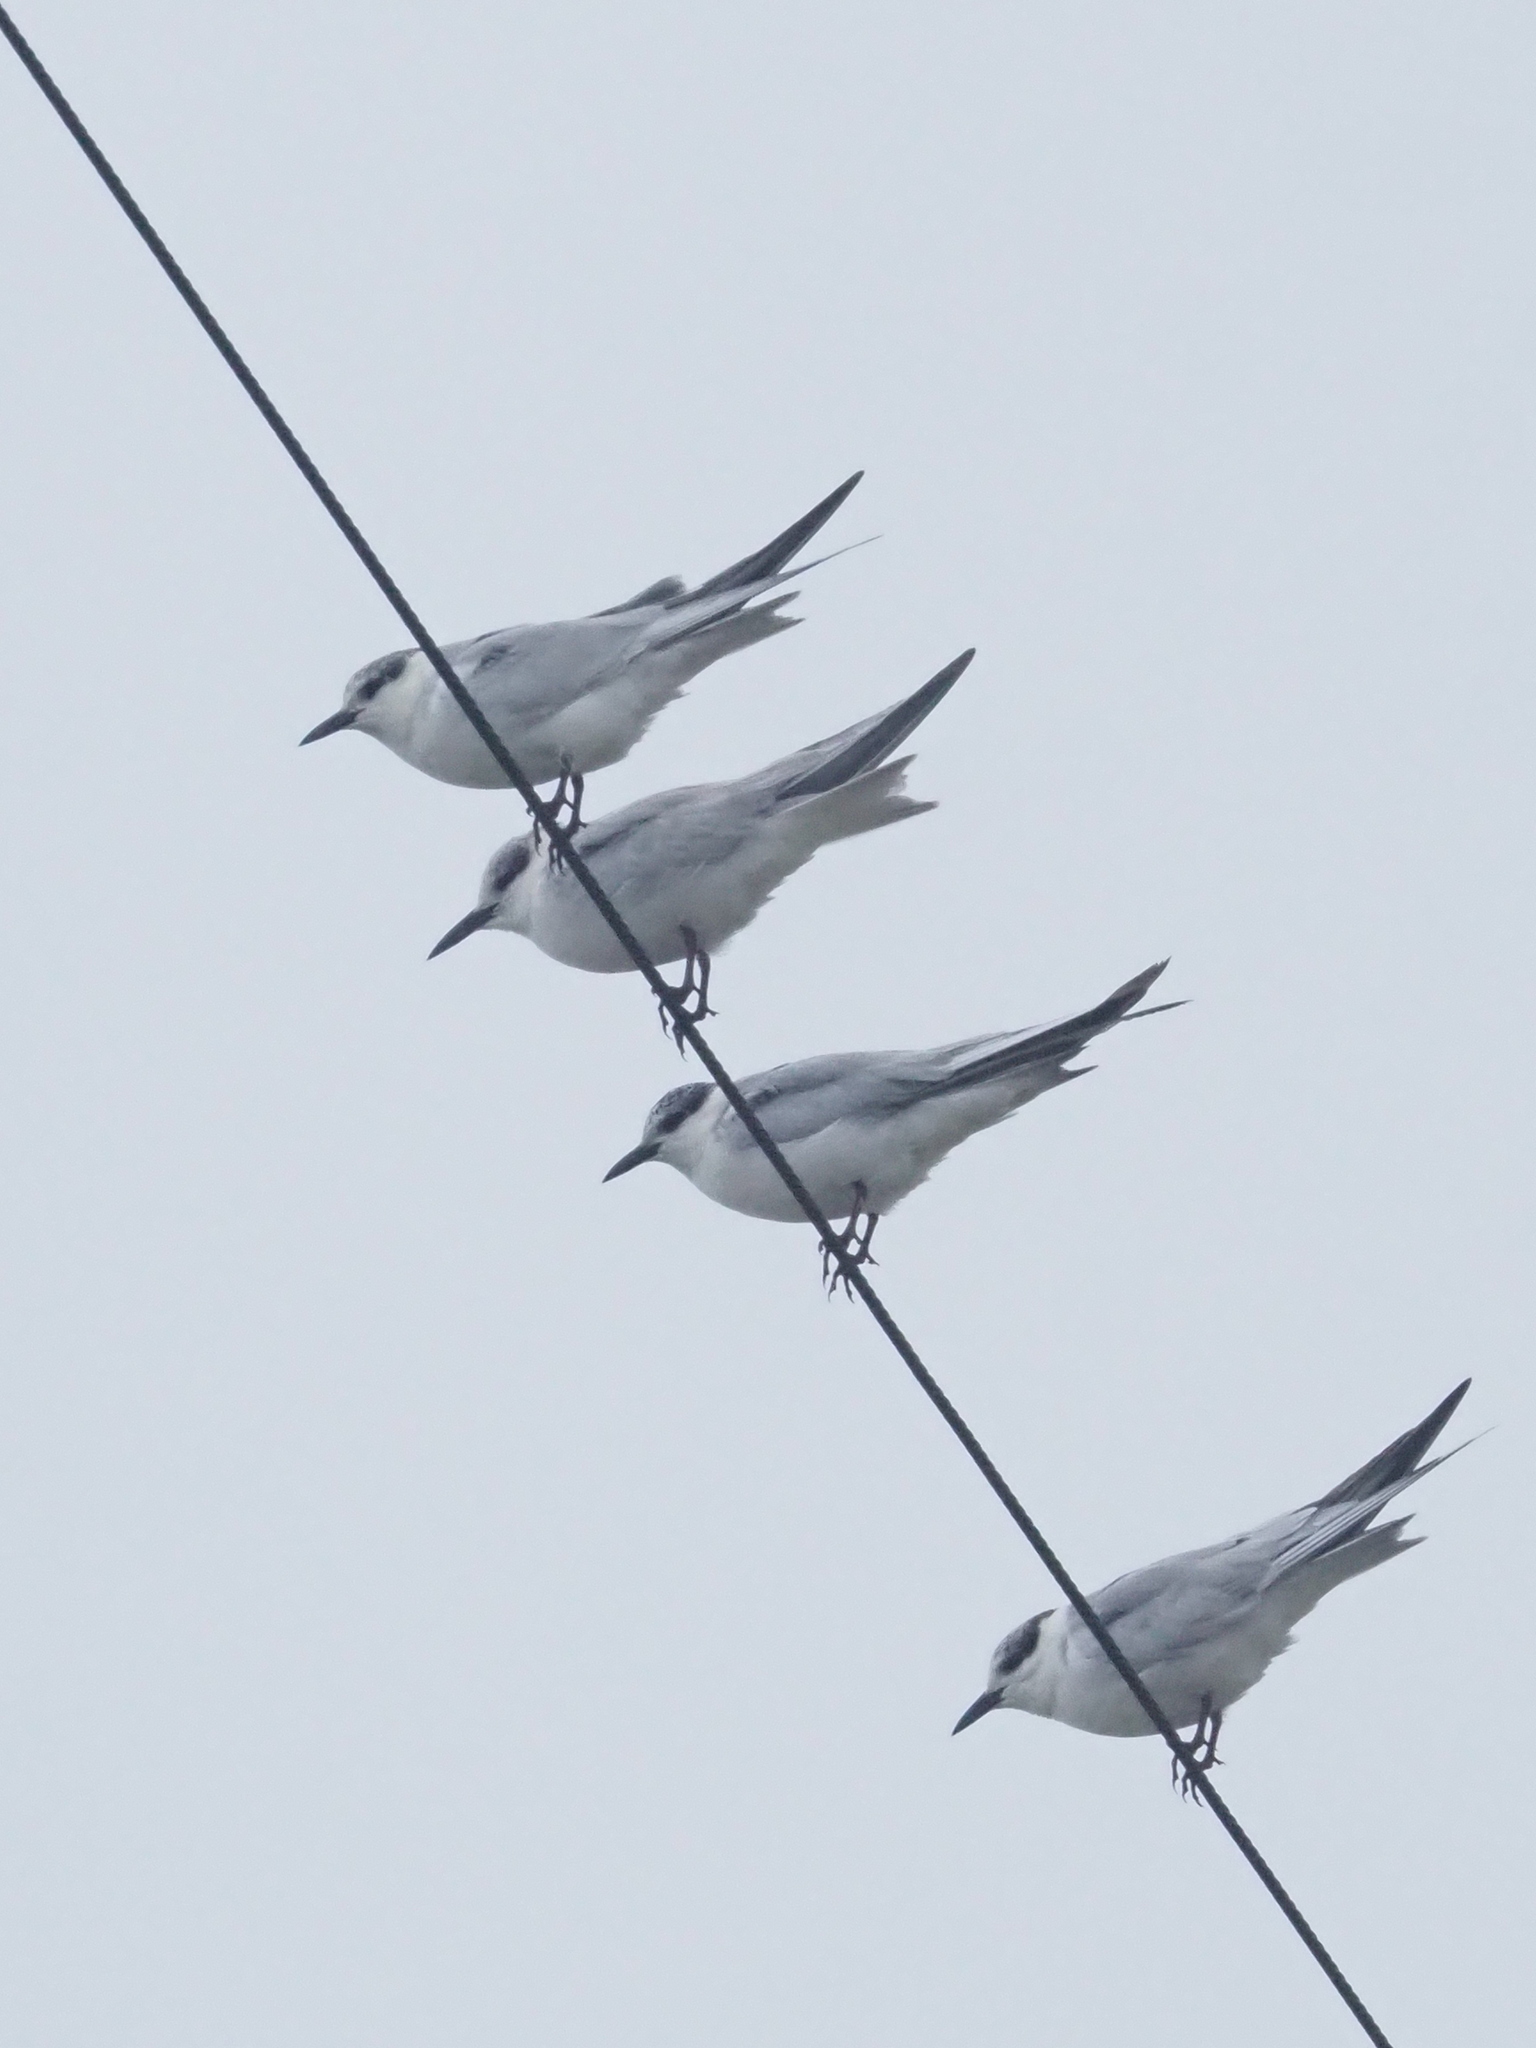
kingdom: Animalia
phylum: Chordata
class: Aves
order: Charadriiformes
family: Laridae
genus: Chlidonias
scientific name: Chlidonias hybrida
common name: Whiskered tern
